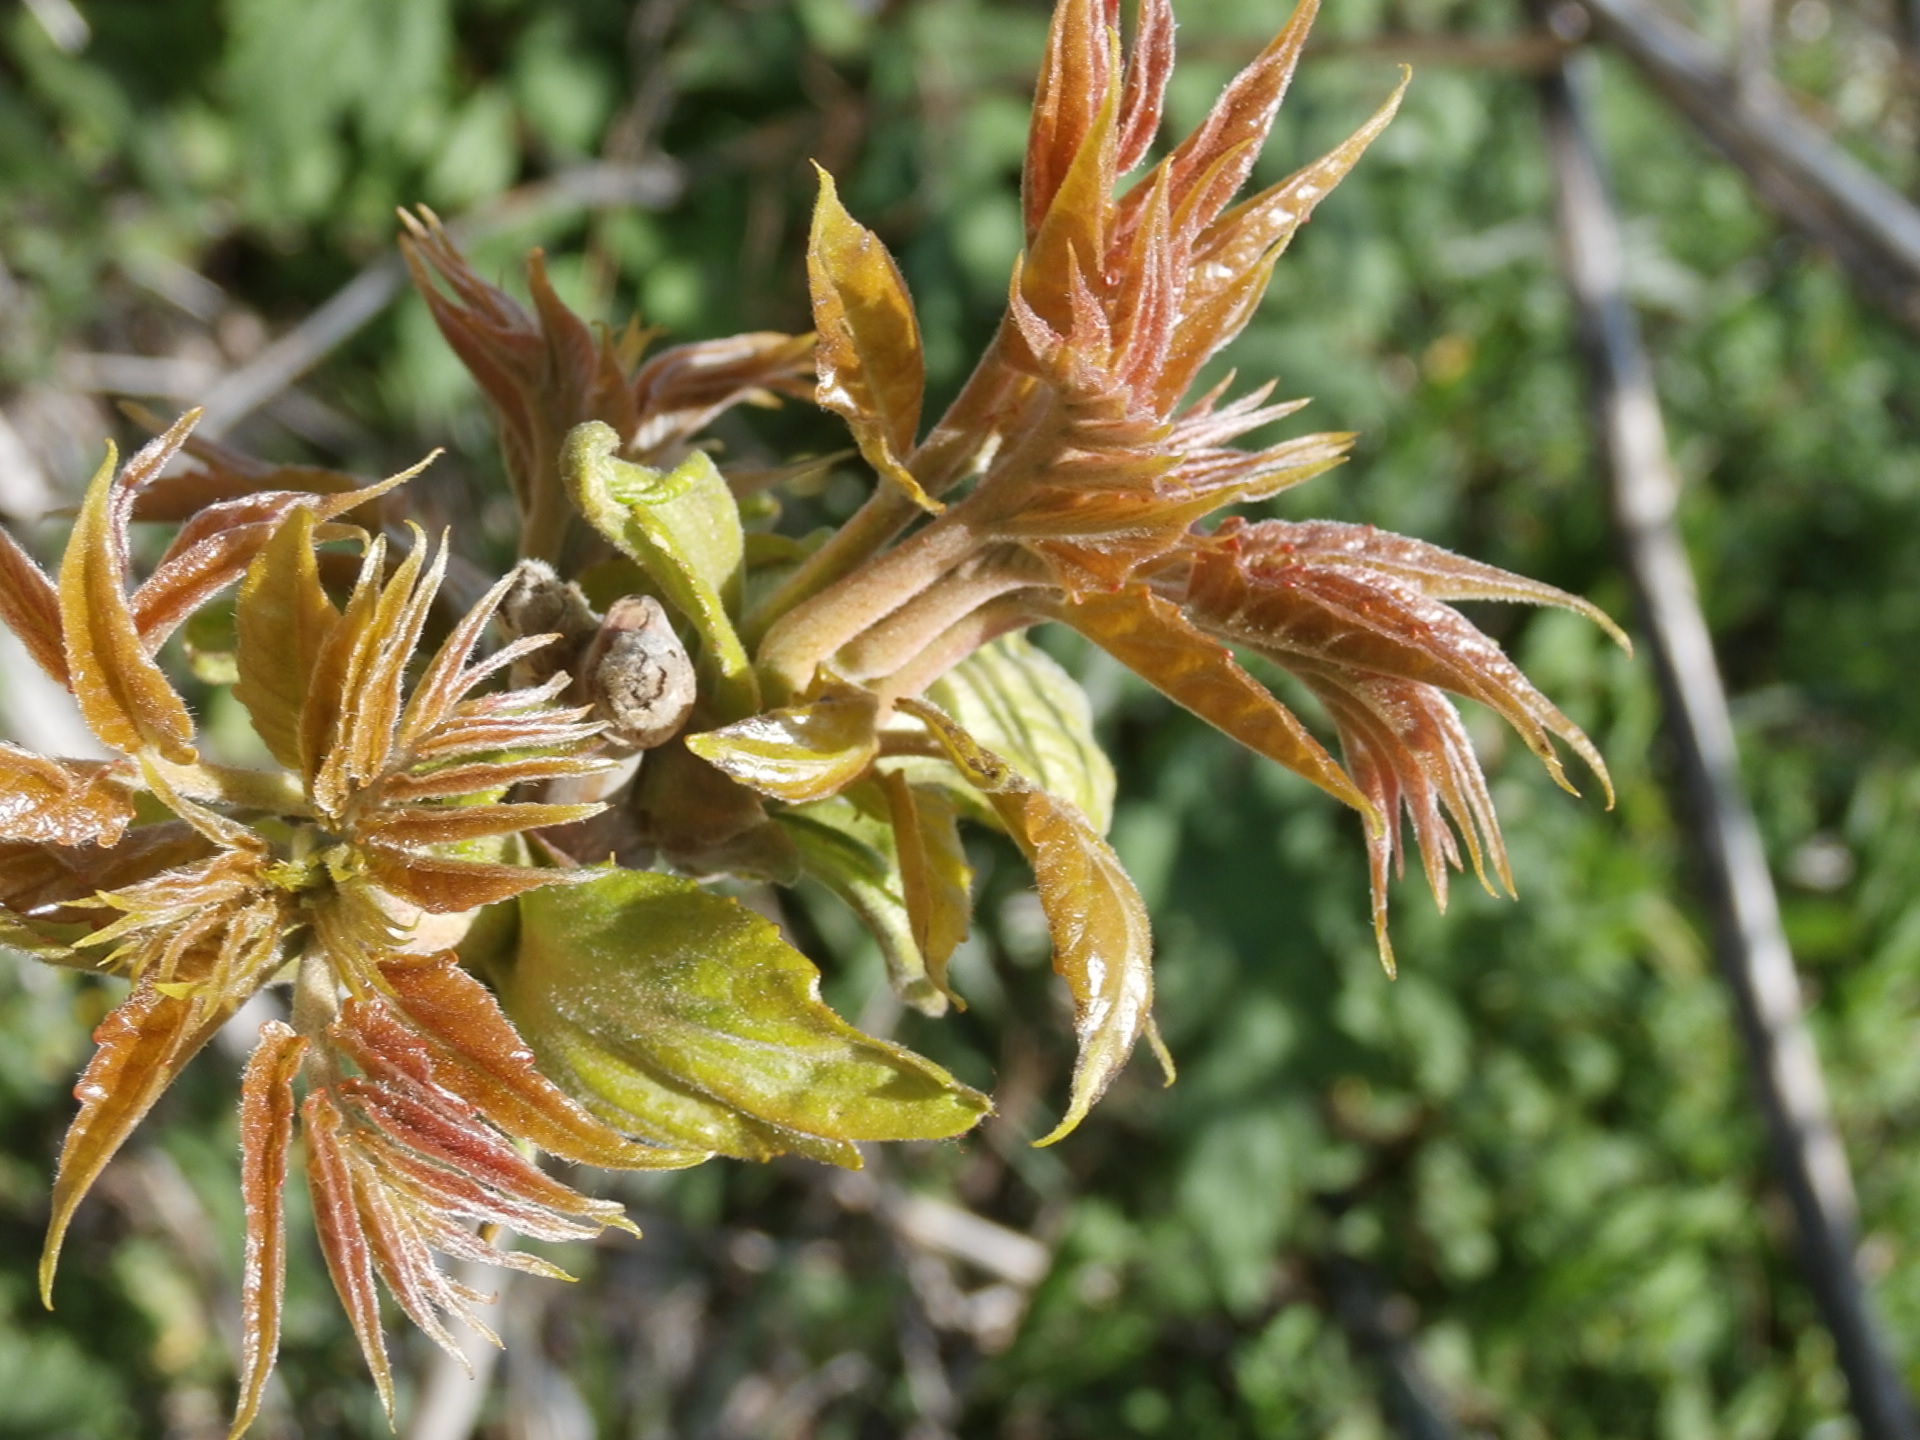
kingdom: Plantae
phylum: Tracheophyta
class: Magnoliopsida
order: Sapindales
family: Simaroubaceae
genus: Ailanthus
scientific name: Ailanthus altissima
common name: Tree-of-heaven
